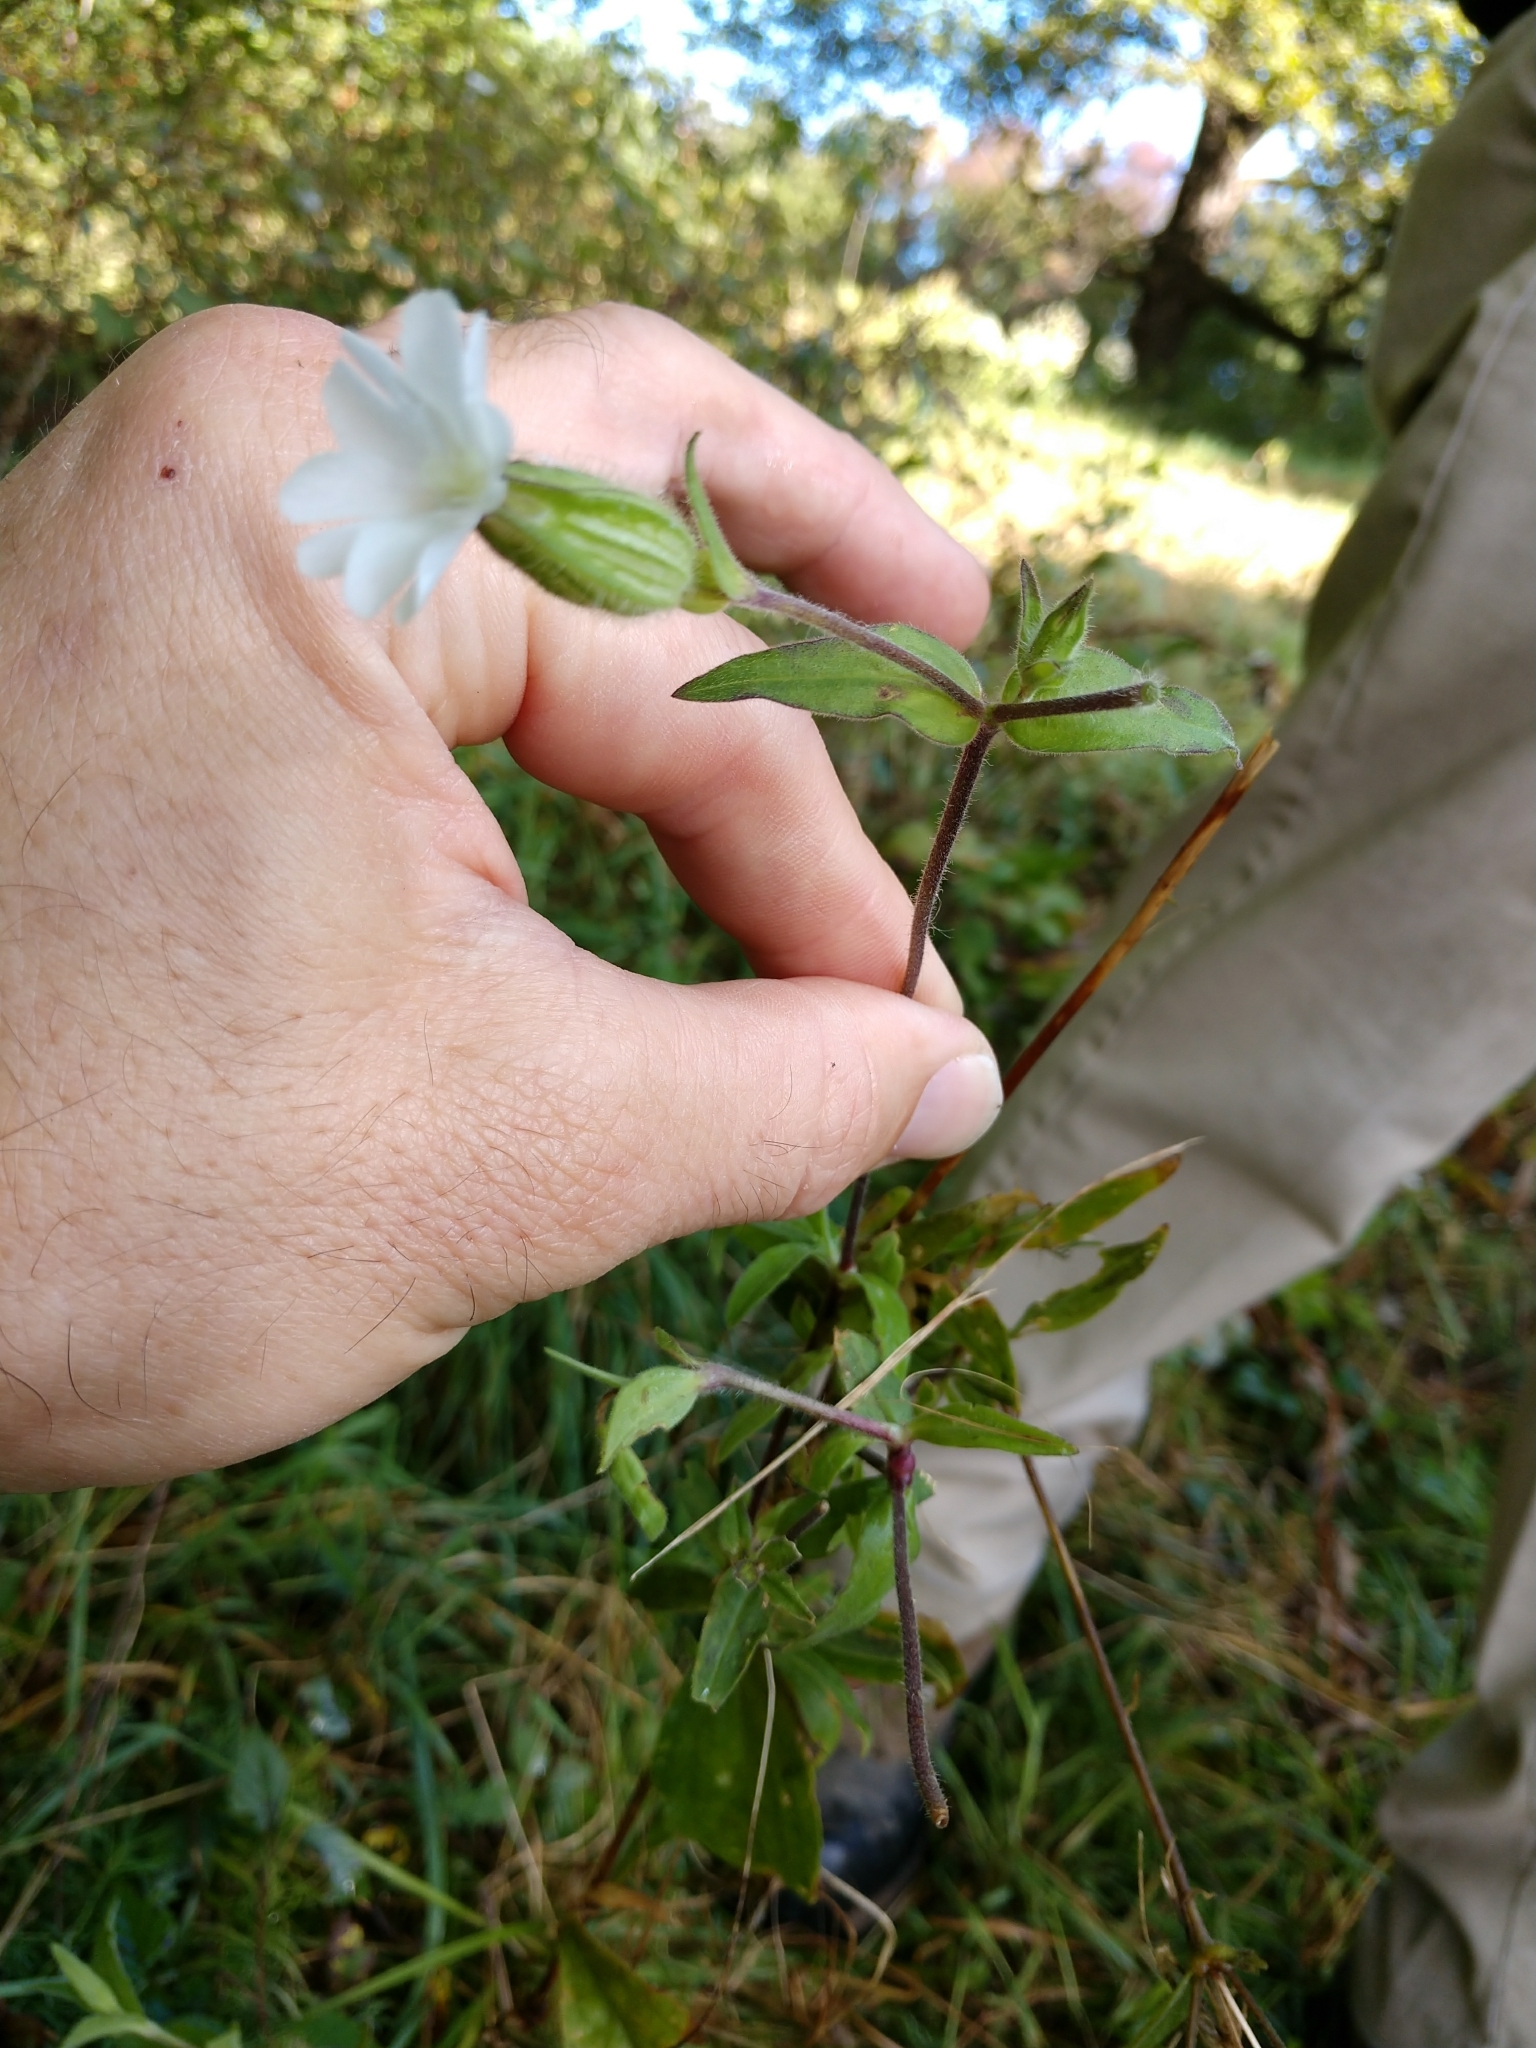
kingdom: Plantae
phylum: Tracheophyta
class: Magnoliopsida
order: Caryophyllales
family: Caryophyllaceae
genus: Silene
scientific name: Silene latifolia
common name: White campion
